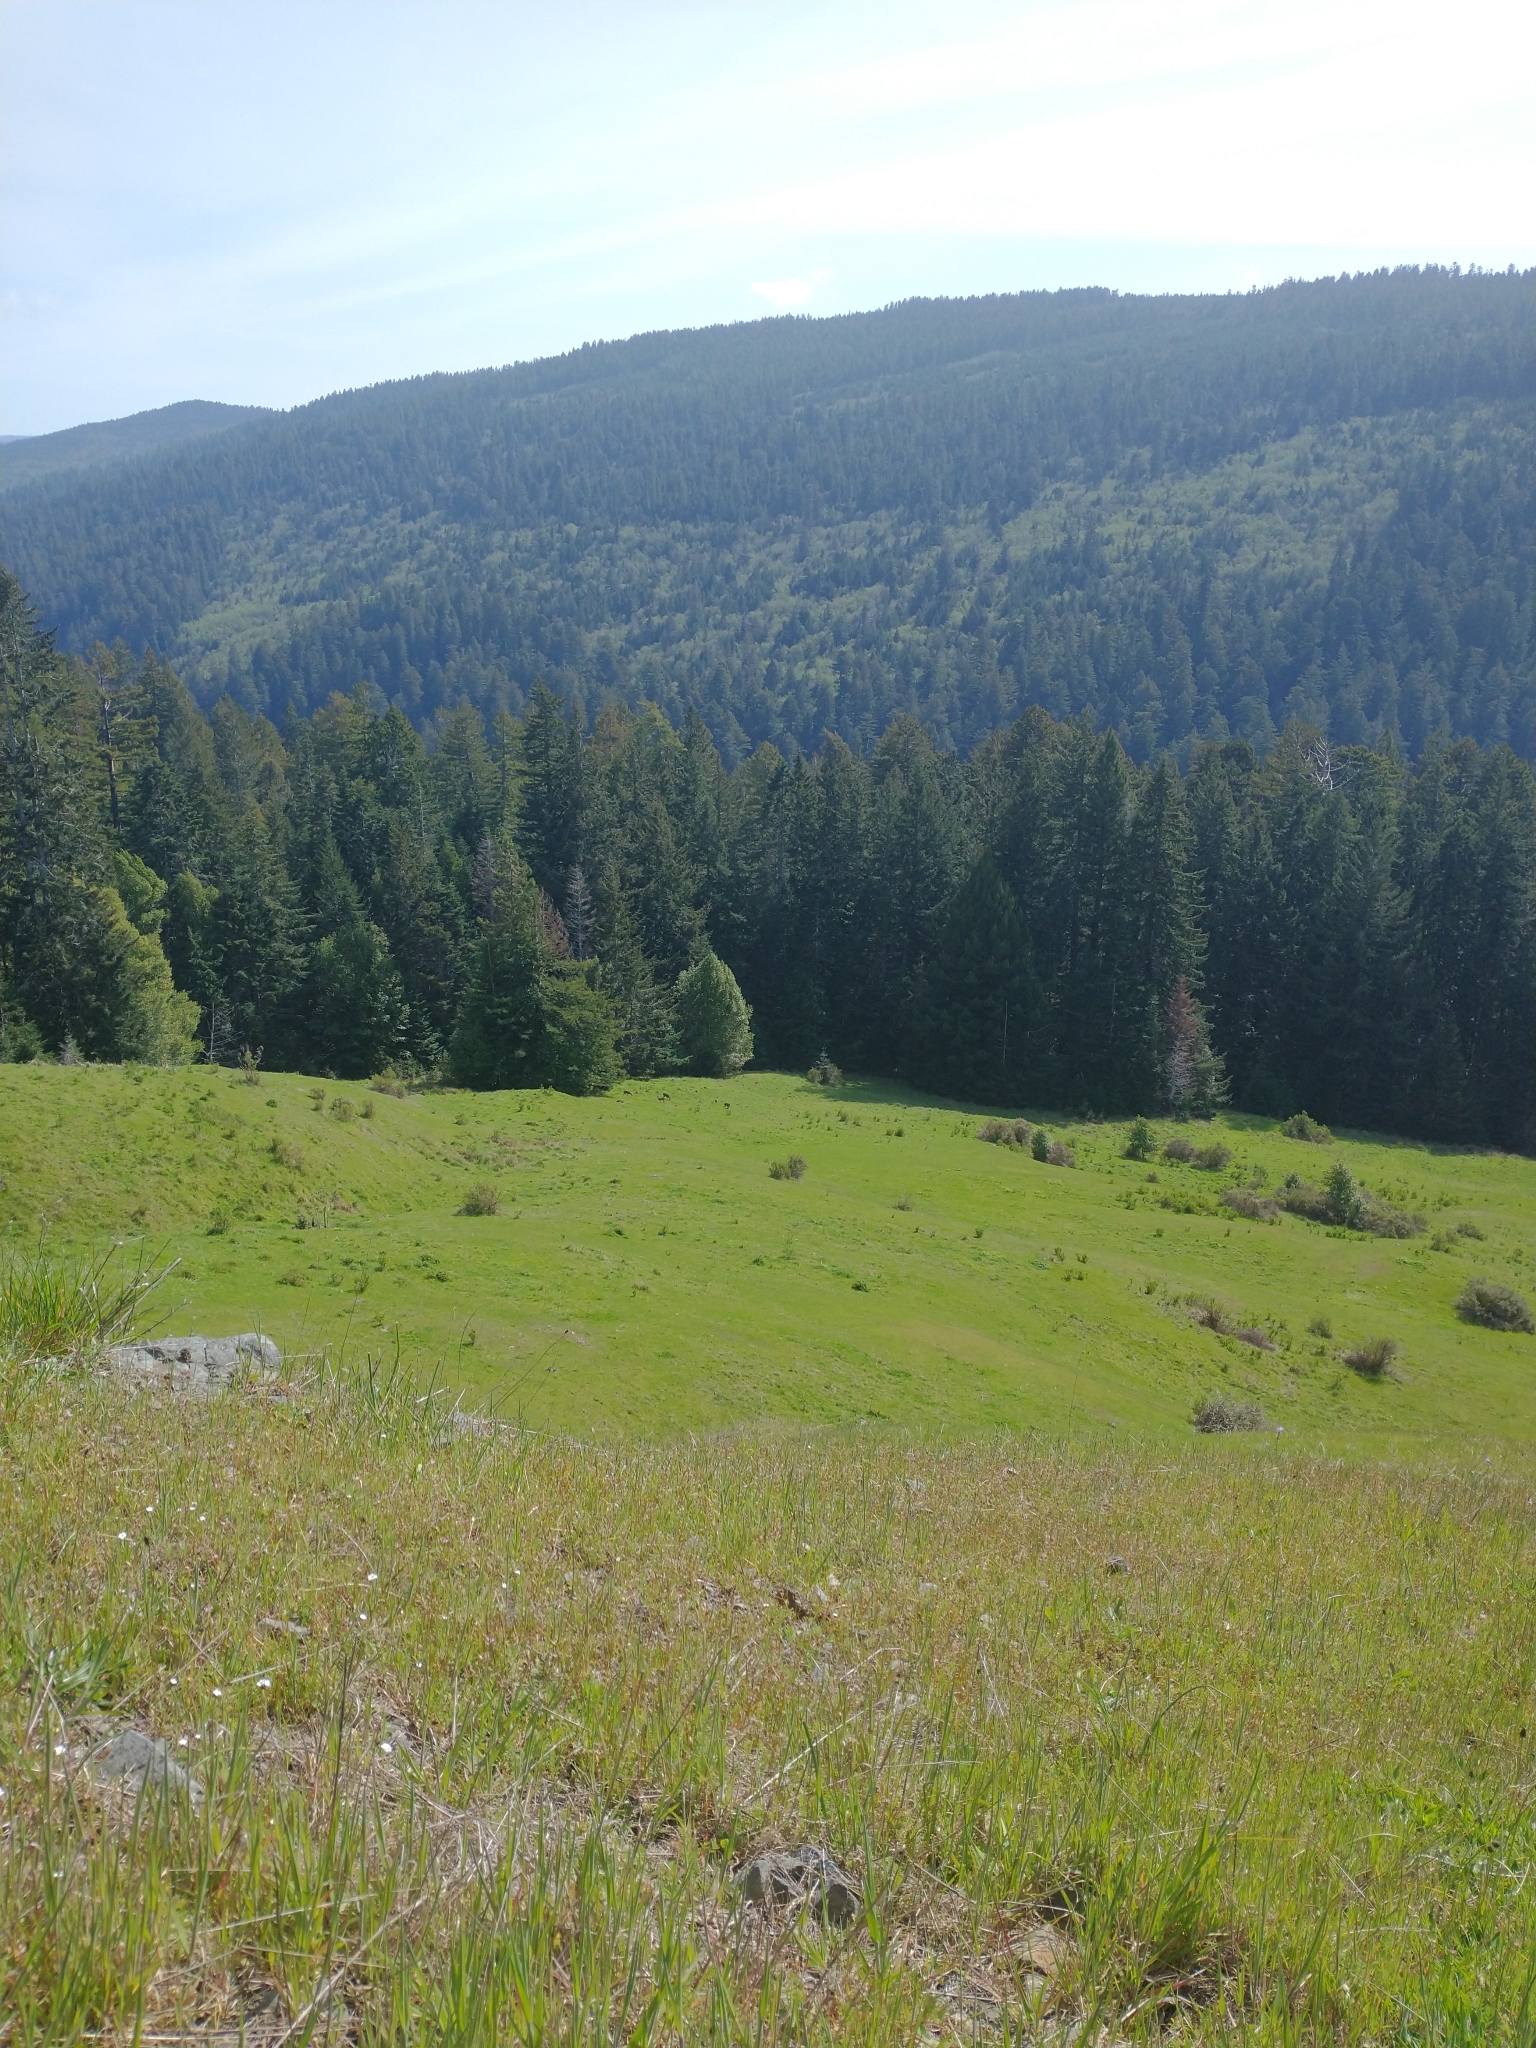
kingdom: Plantae
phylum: Tracheophyta
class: Pinopsida
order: Pinales
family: Cupressaceae
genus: Sequoia
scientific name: Sequoia sempervirens
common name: Coast redwood
